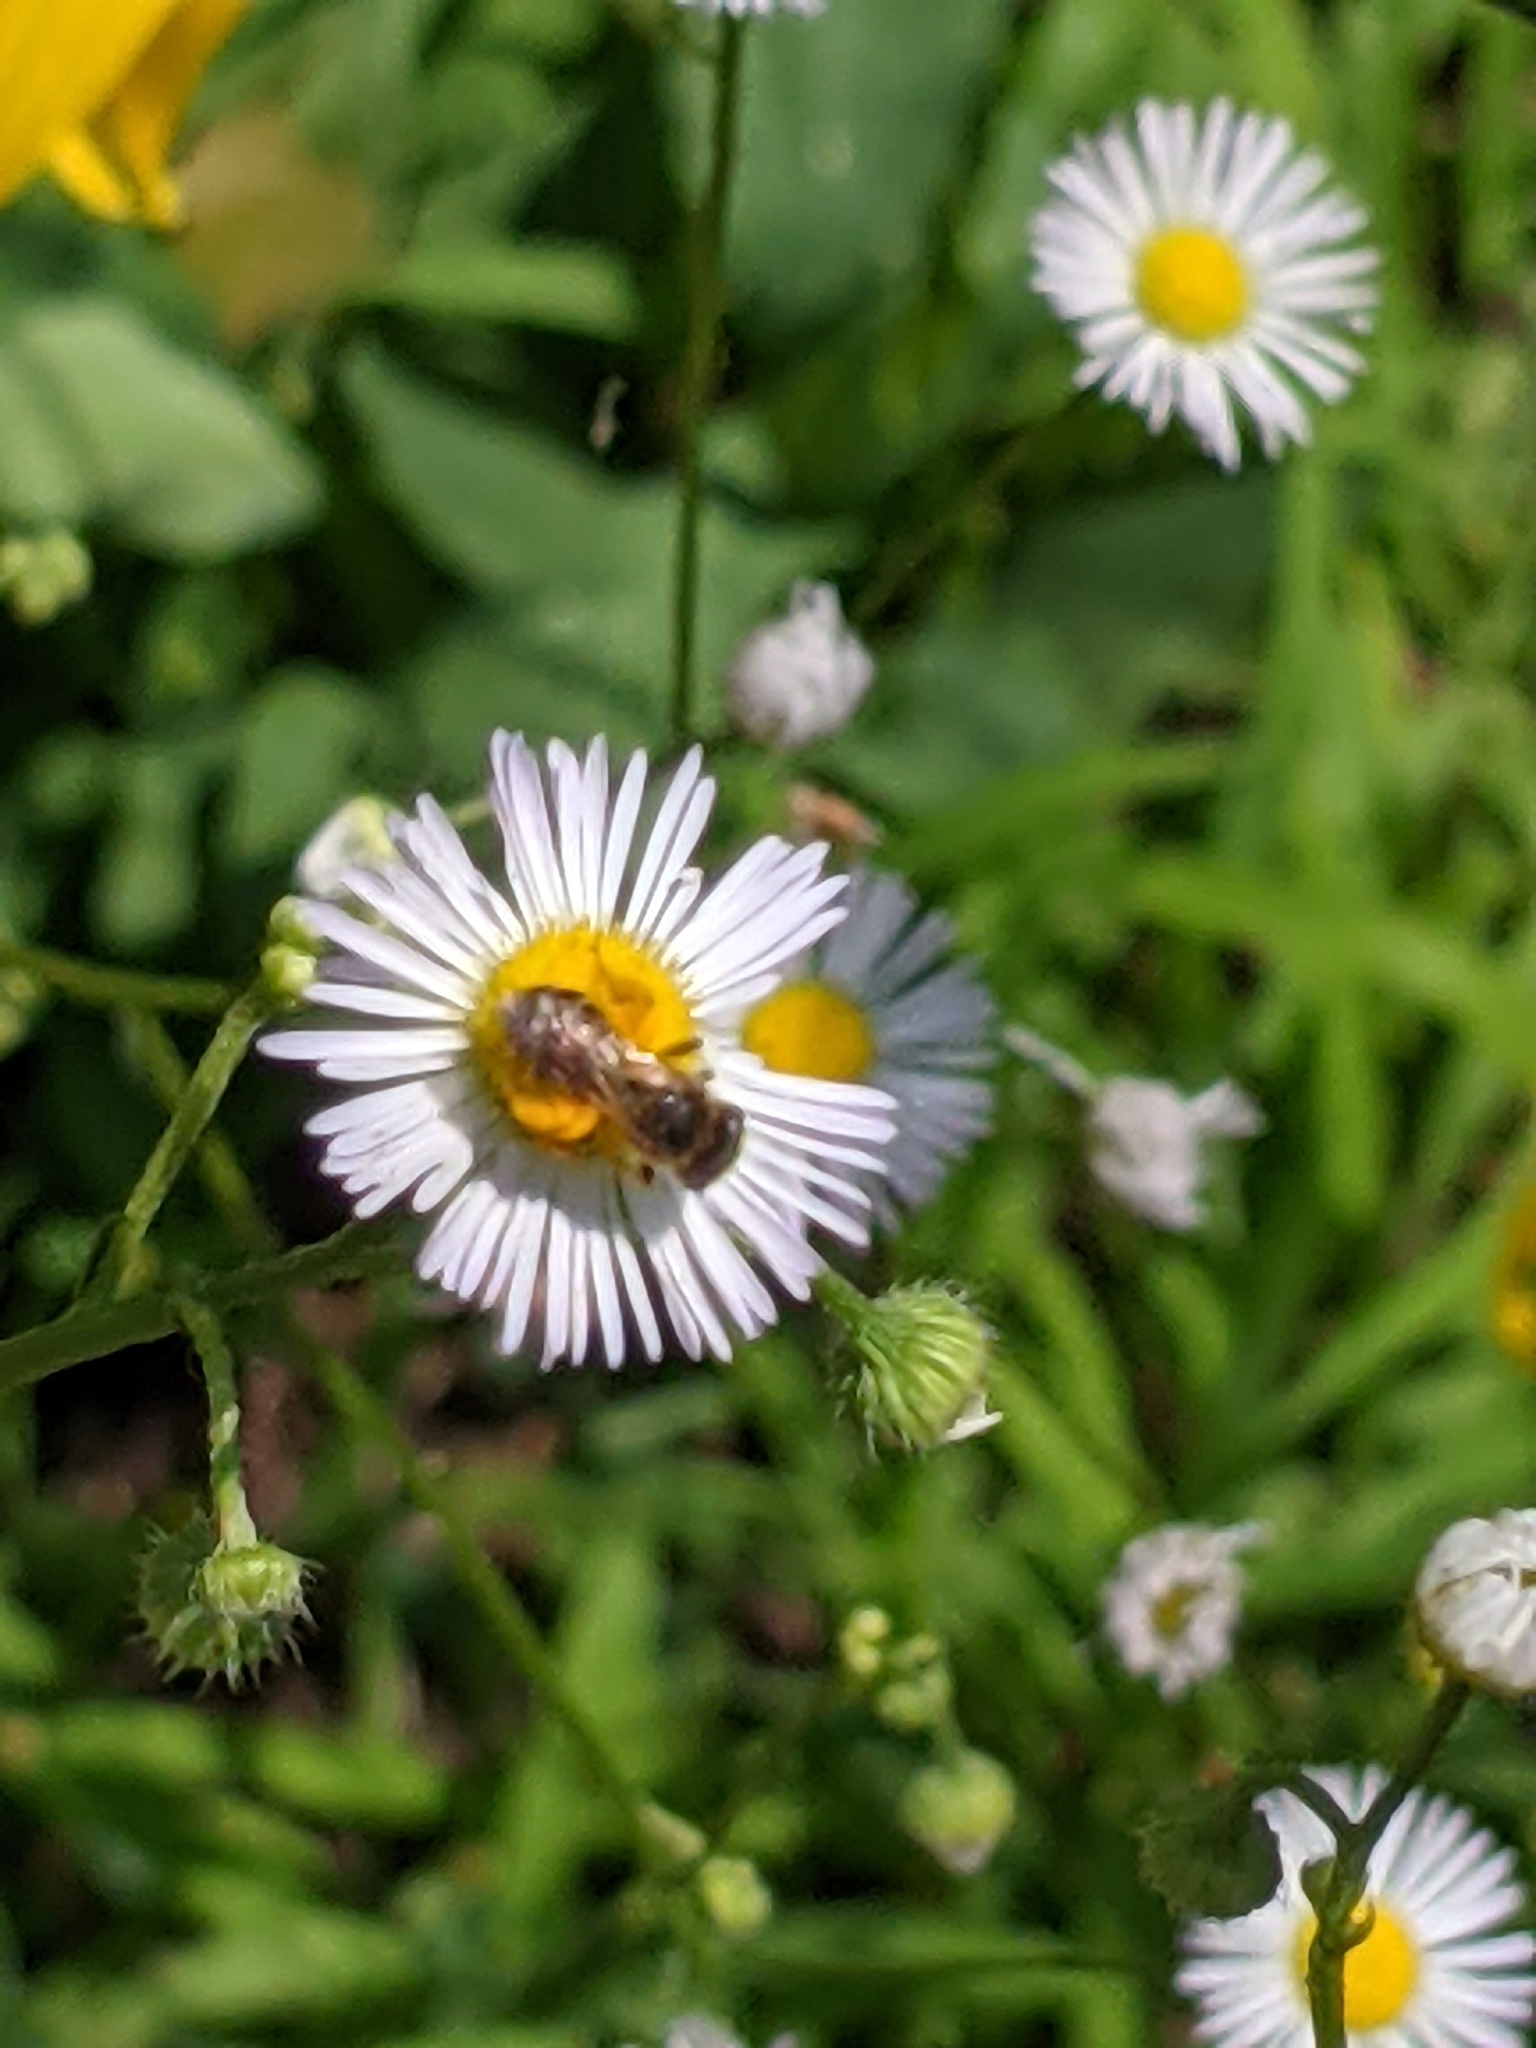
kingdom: Animalia
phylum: Arthropoda
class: Insecta
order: Hymenoptera
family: Halictidae
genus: Halictus
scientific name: Halictus ligatus
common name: Ligated furrow bee
